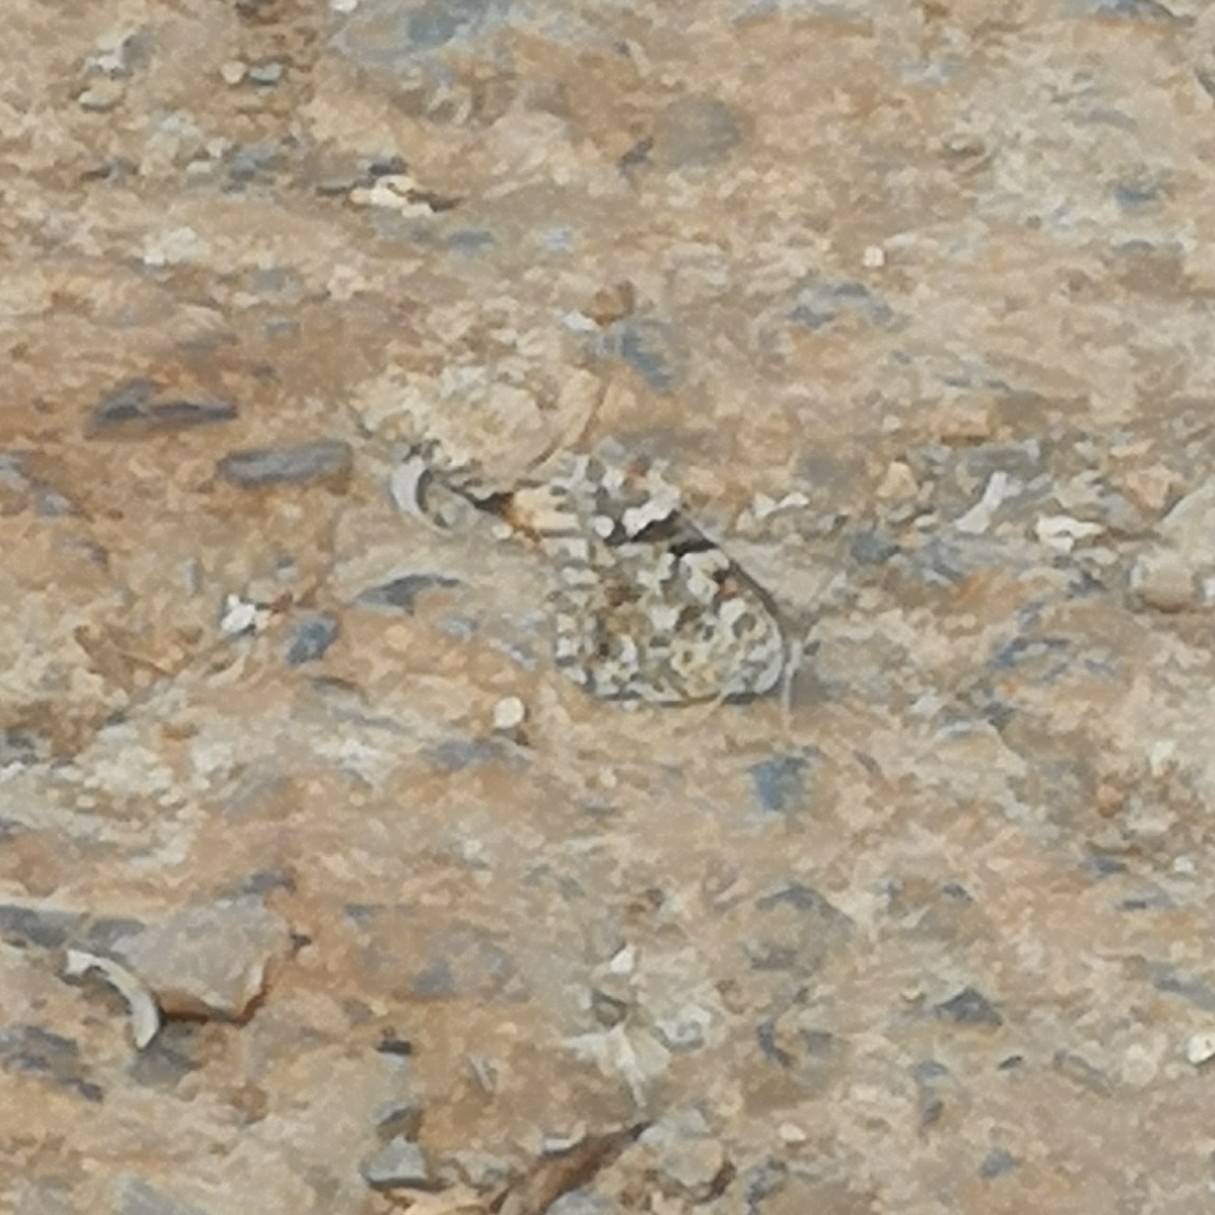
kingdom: Animalia
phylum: Arthropoda
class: Insecta
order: Lepidoptera
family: Nymphalidae
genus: Vanessa
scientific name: Vanessa cardui
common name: Painted lady
